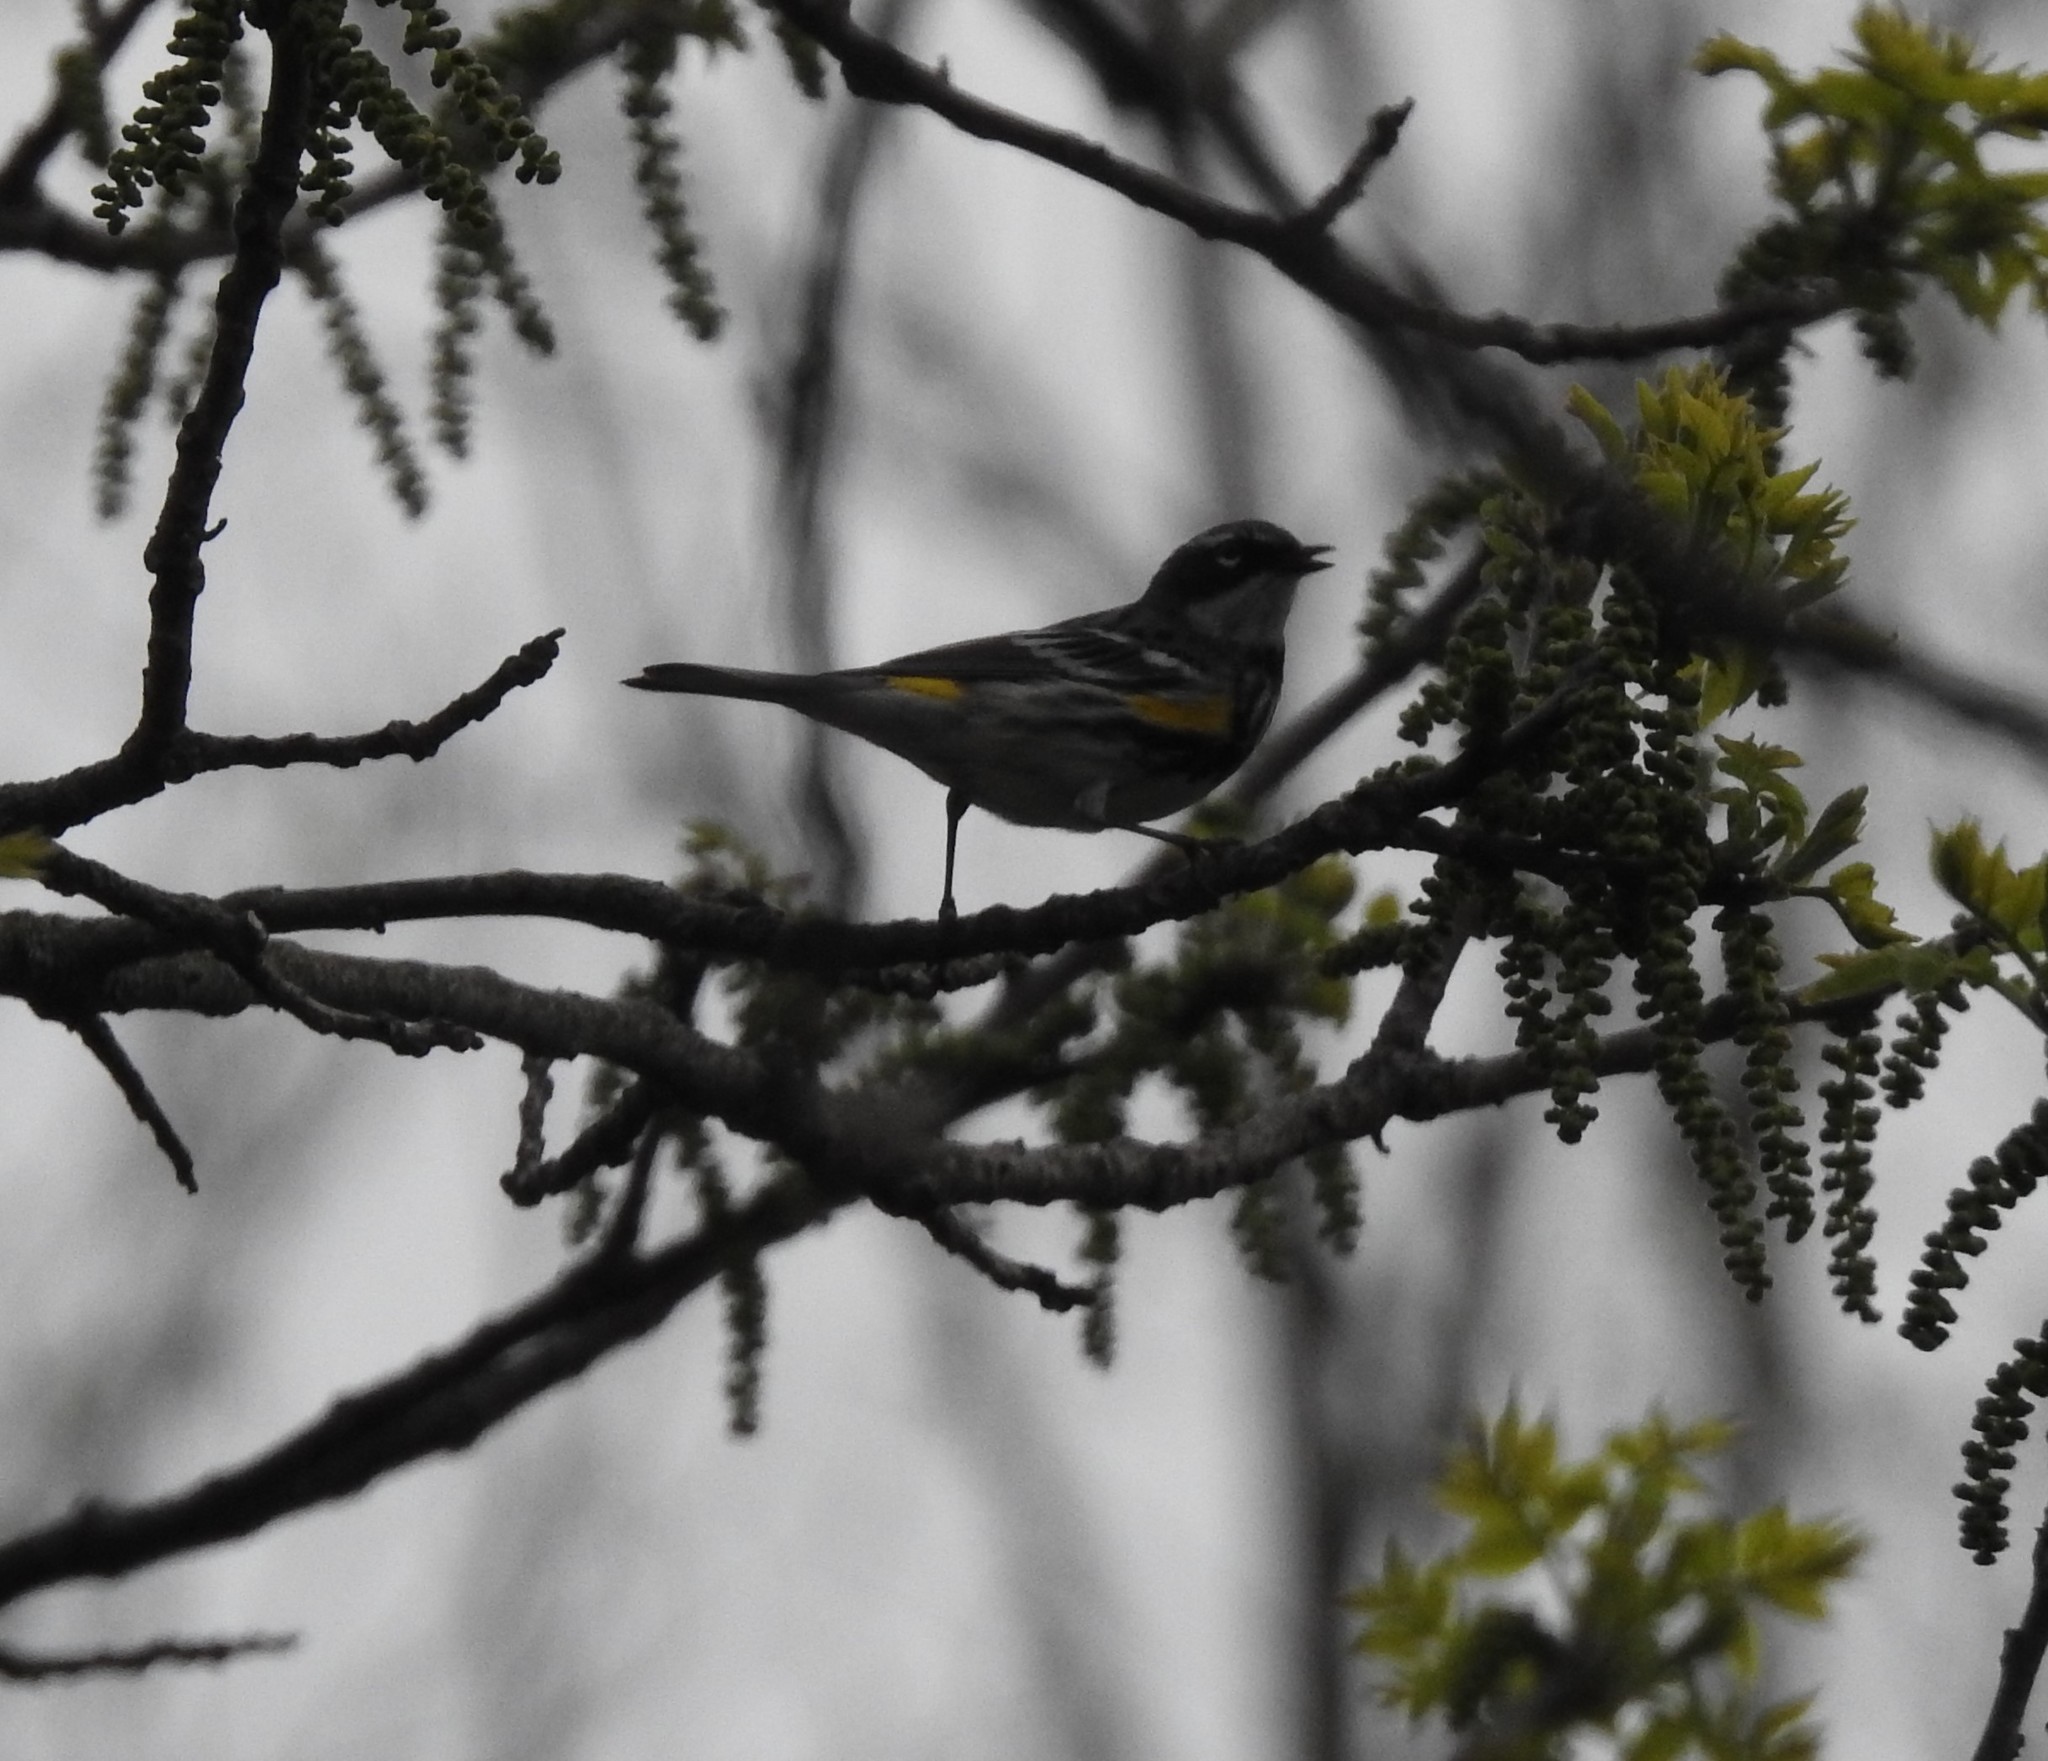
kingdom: Animalia
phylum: Chordata
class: Aves
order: Passeriformes
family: Parulidae
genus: Setophaga
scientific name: Setophaga coronata
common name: Myrtle warbler
